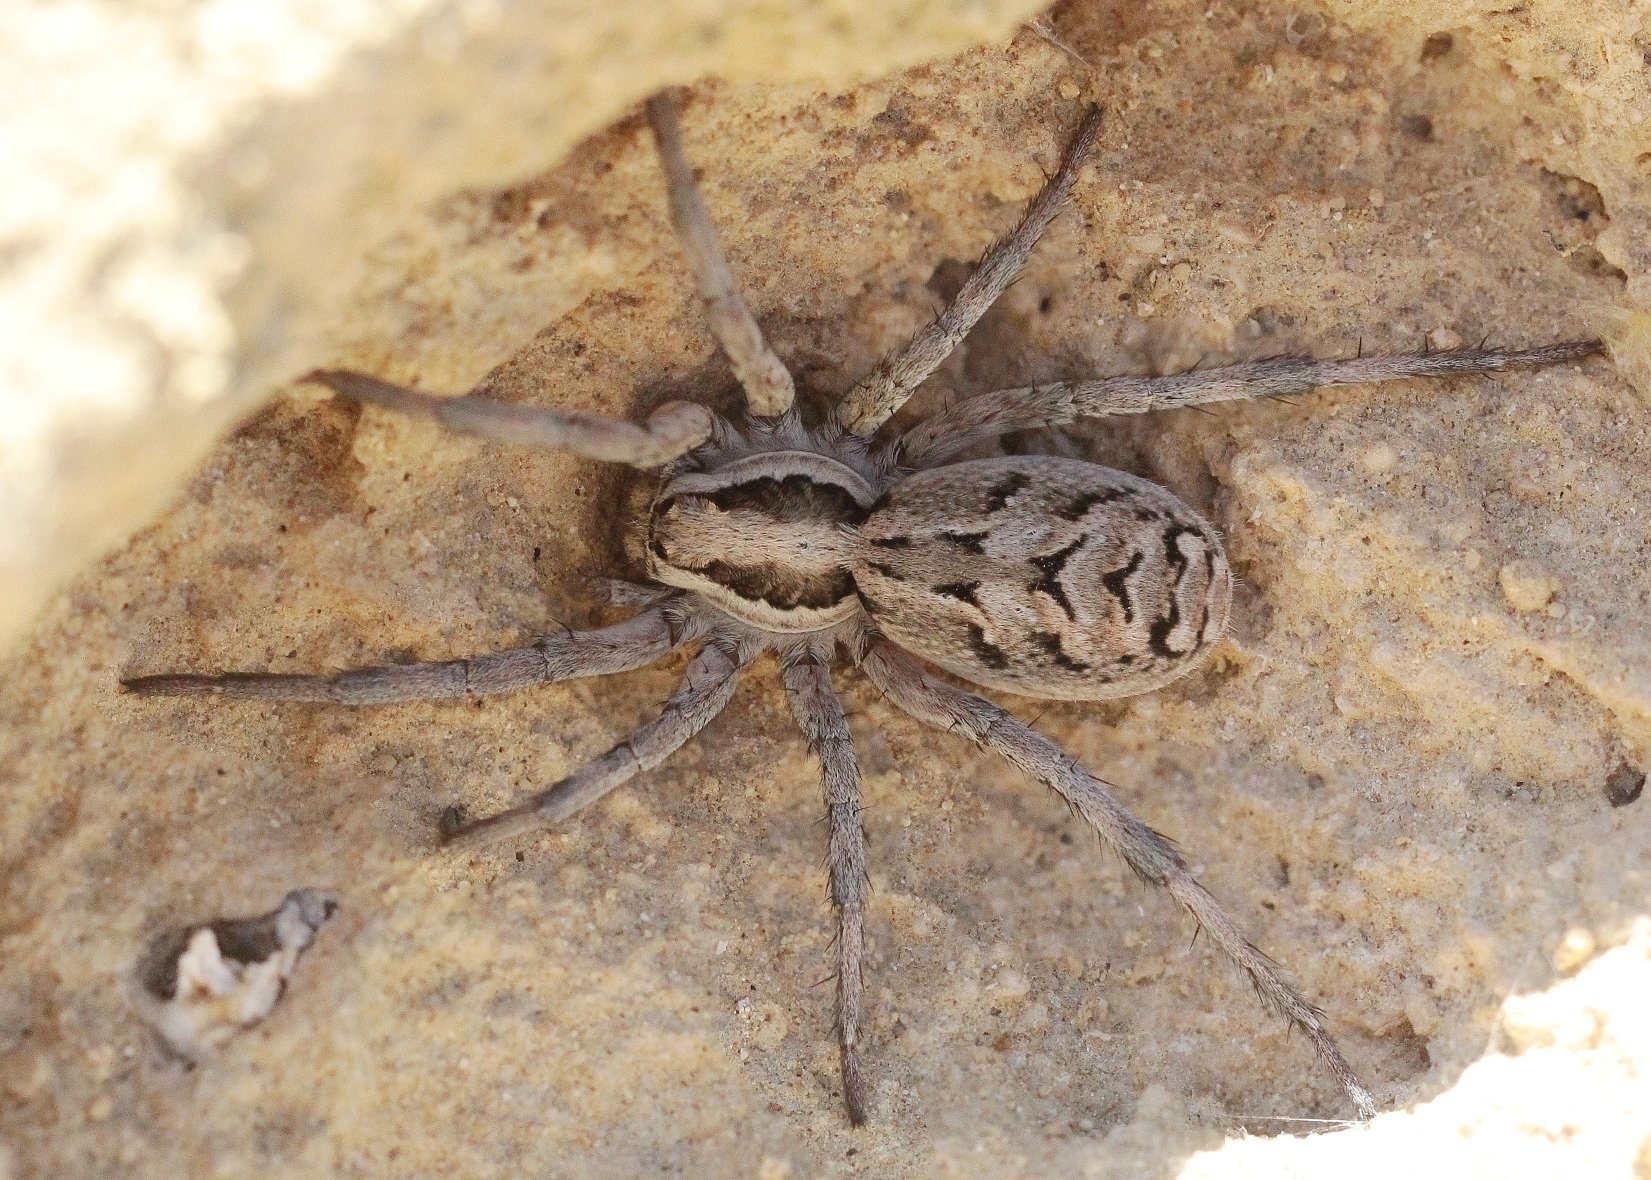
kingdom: Animalia
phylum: Arthropoda
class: Arachnida
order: Araneae
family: Lycosidae
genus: Lycosa
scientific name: Lycosa praegrandis
